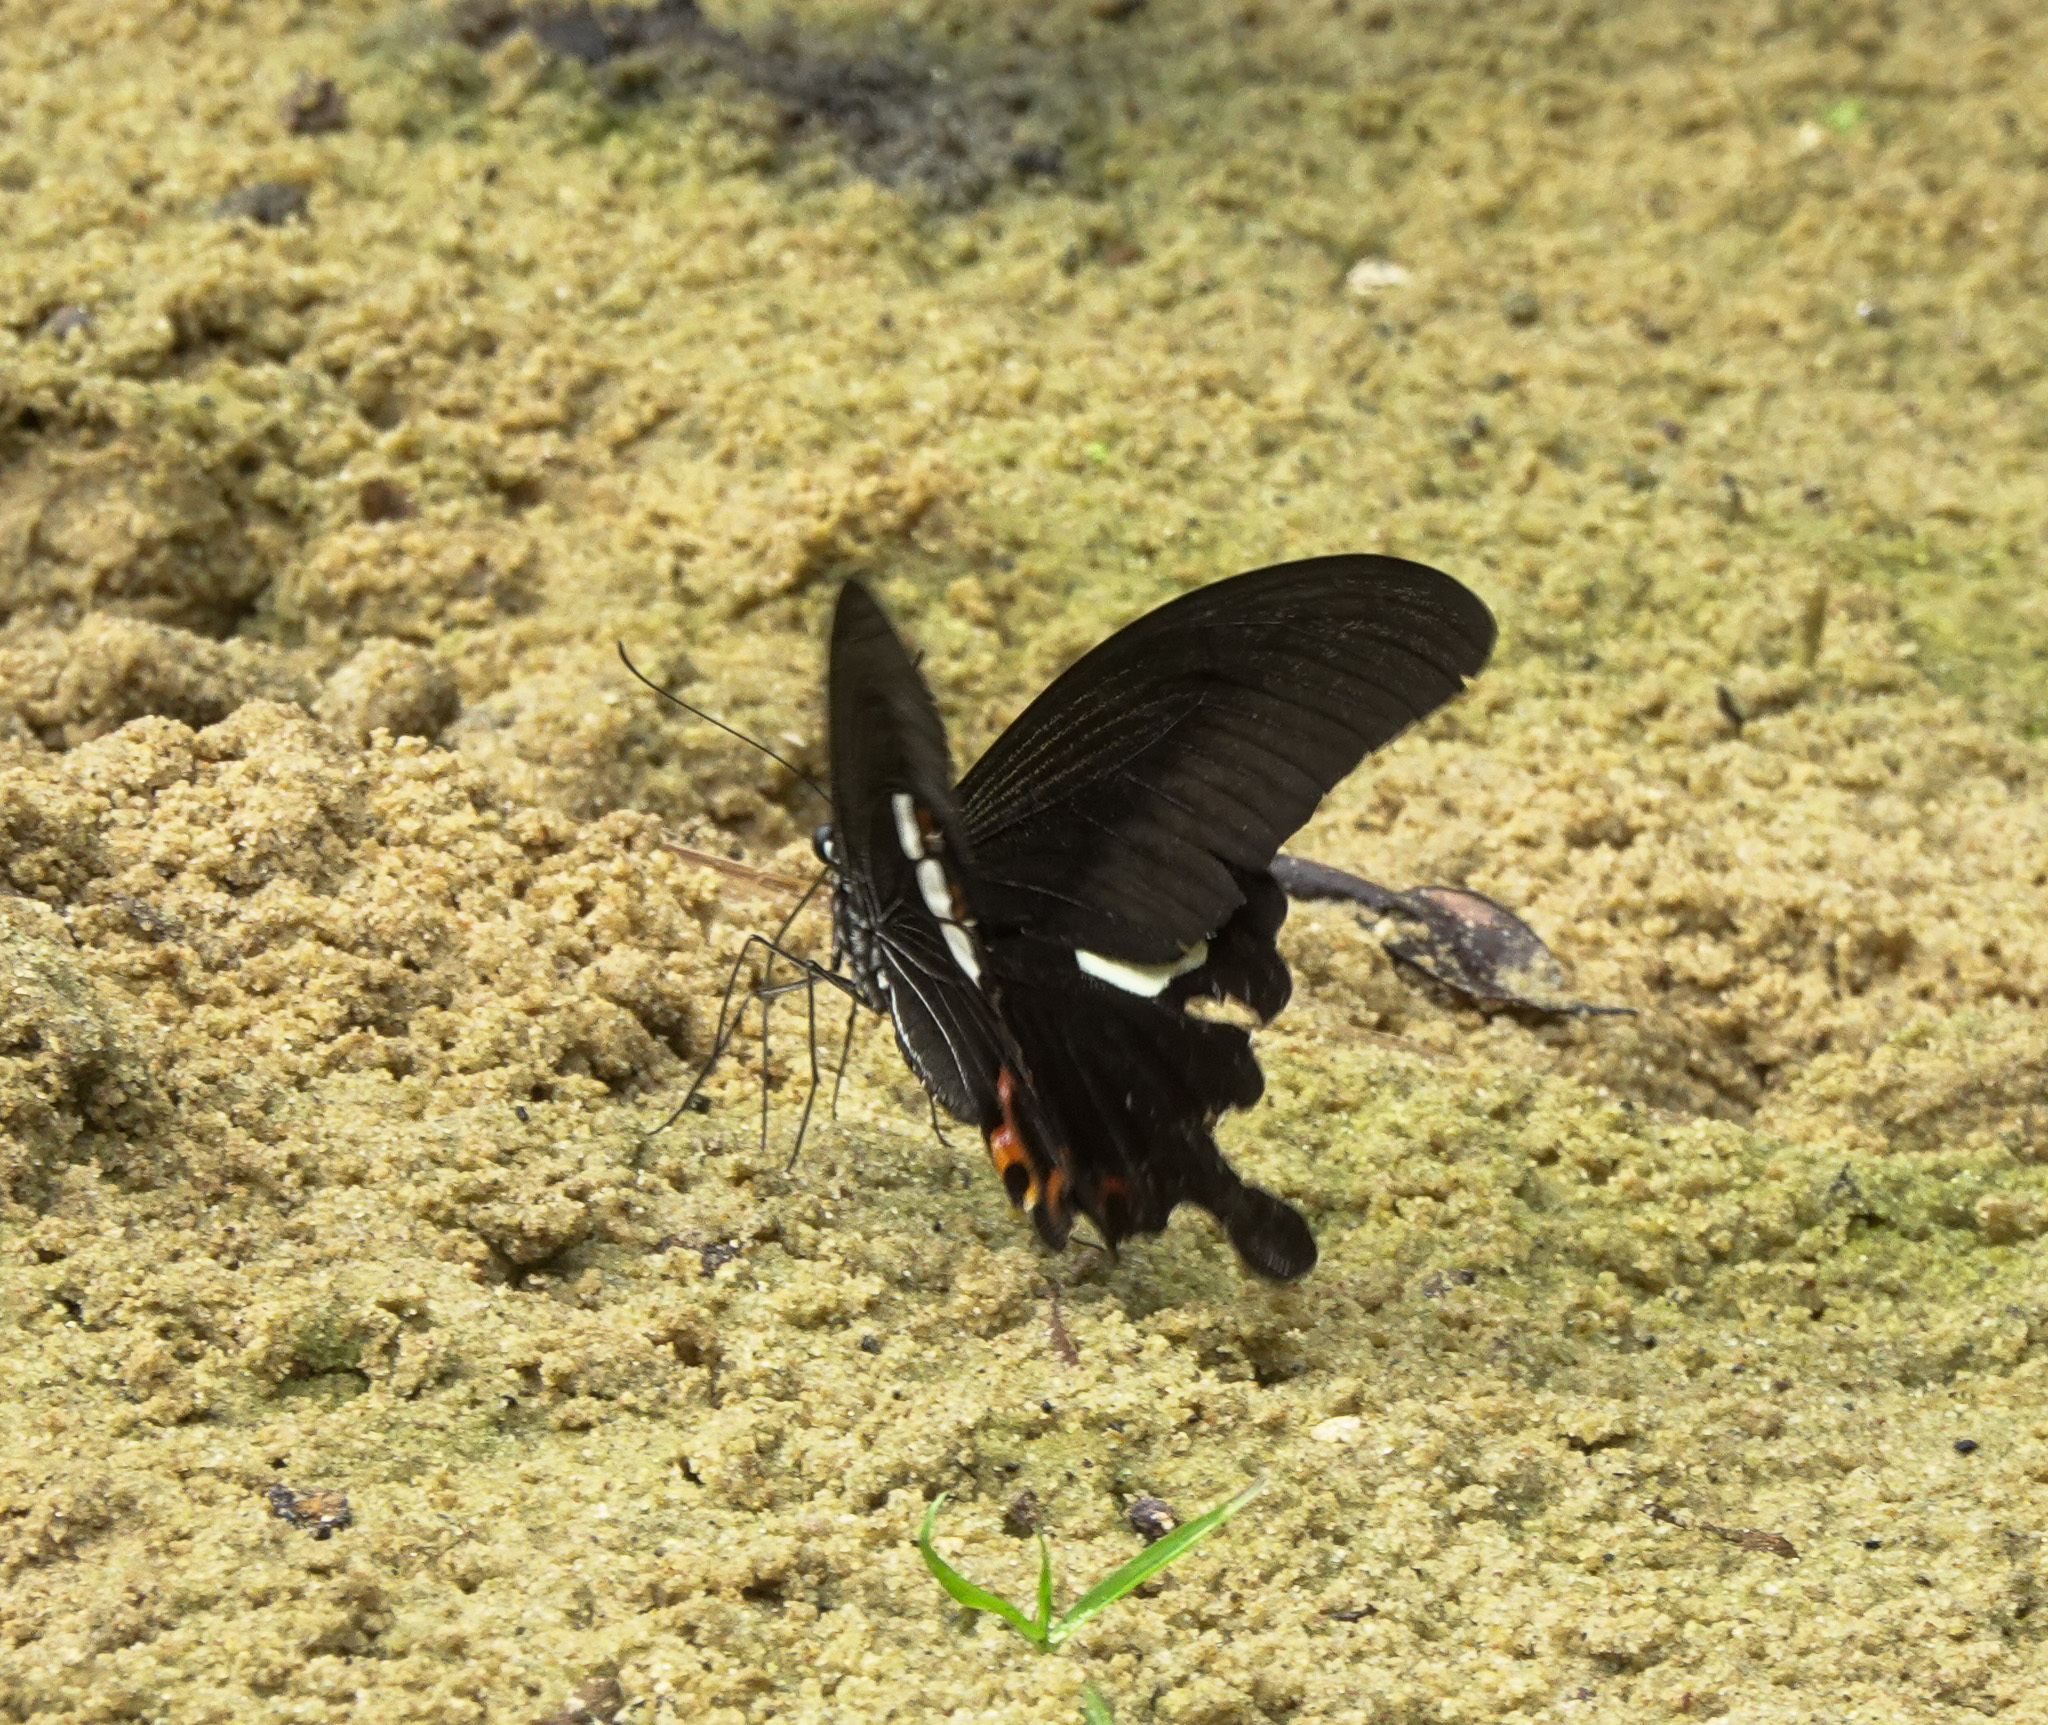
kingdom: Animalia
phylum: Arthropoda
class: Insecta
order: Lepidoptera
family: Papilionidae
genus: Papilio
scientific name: Papilio helenus
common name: Red helen
